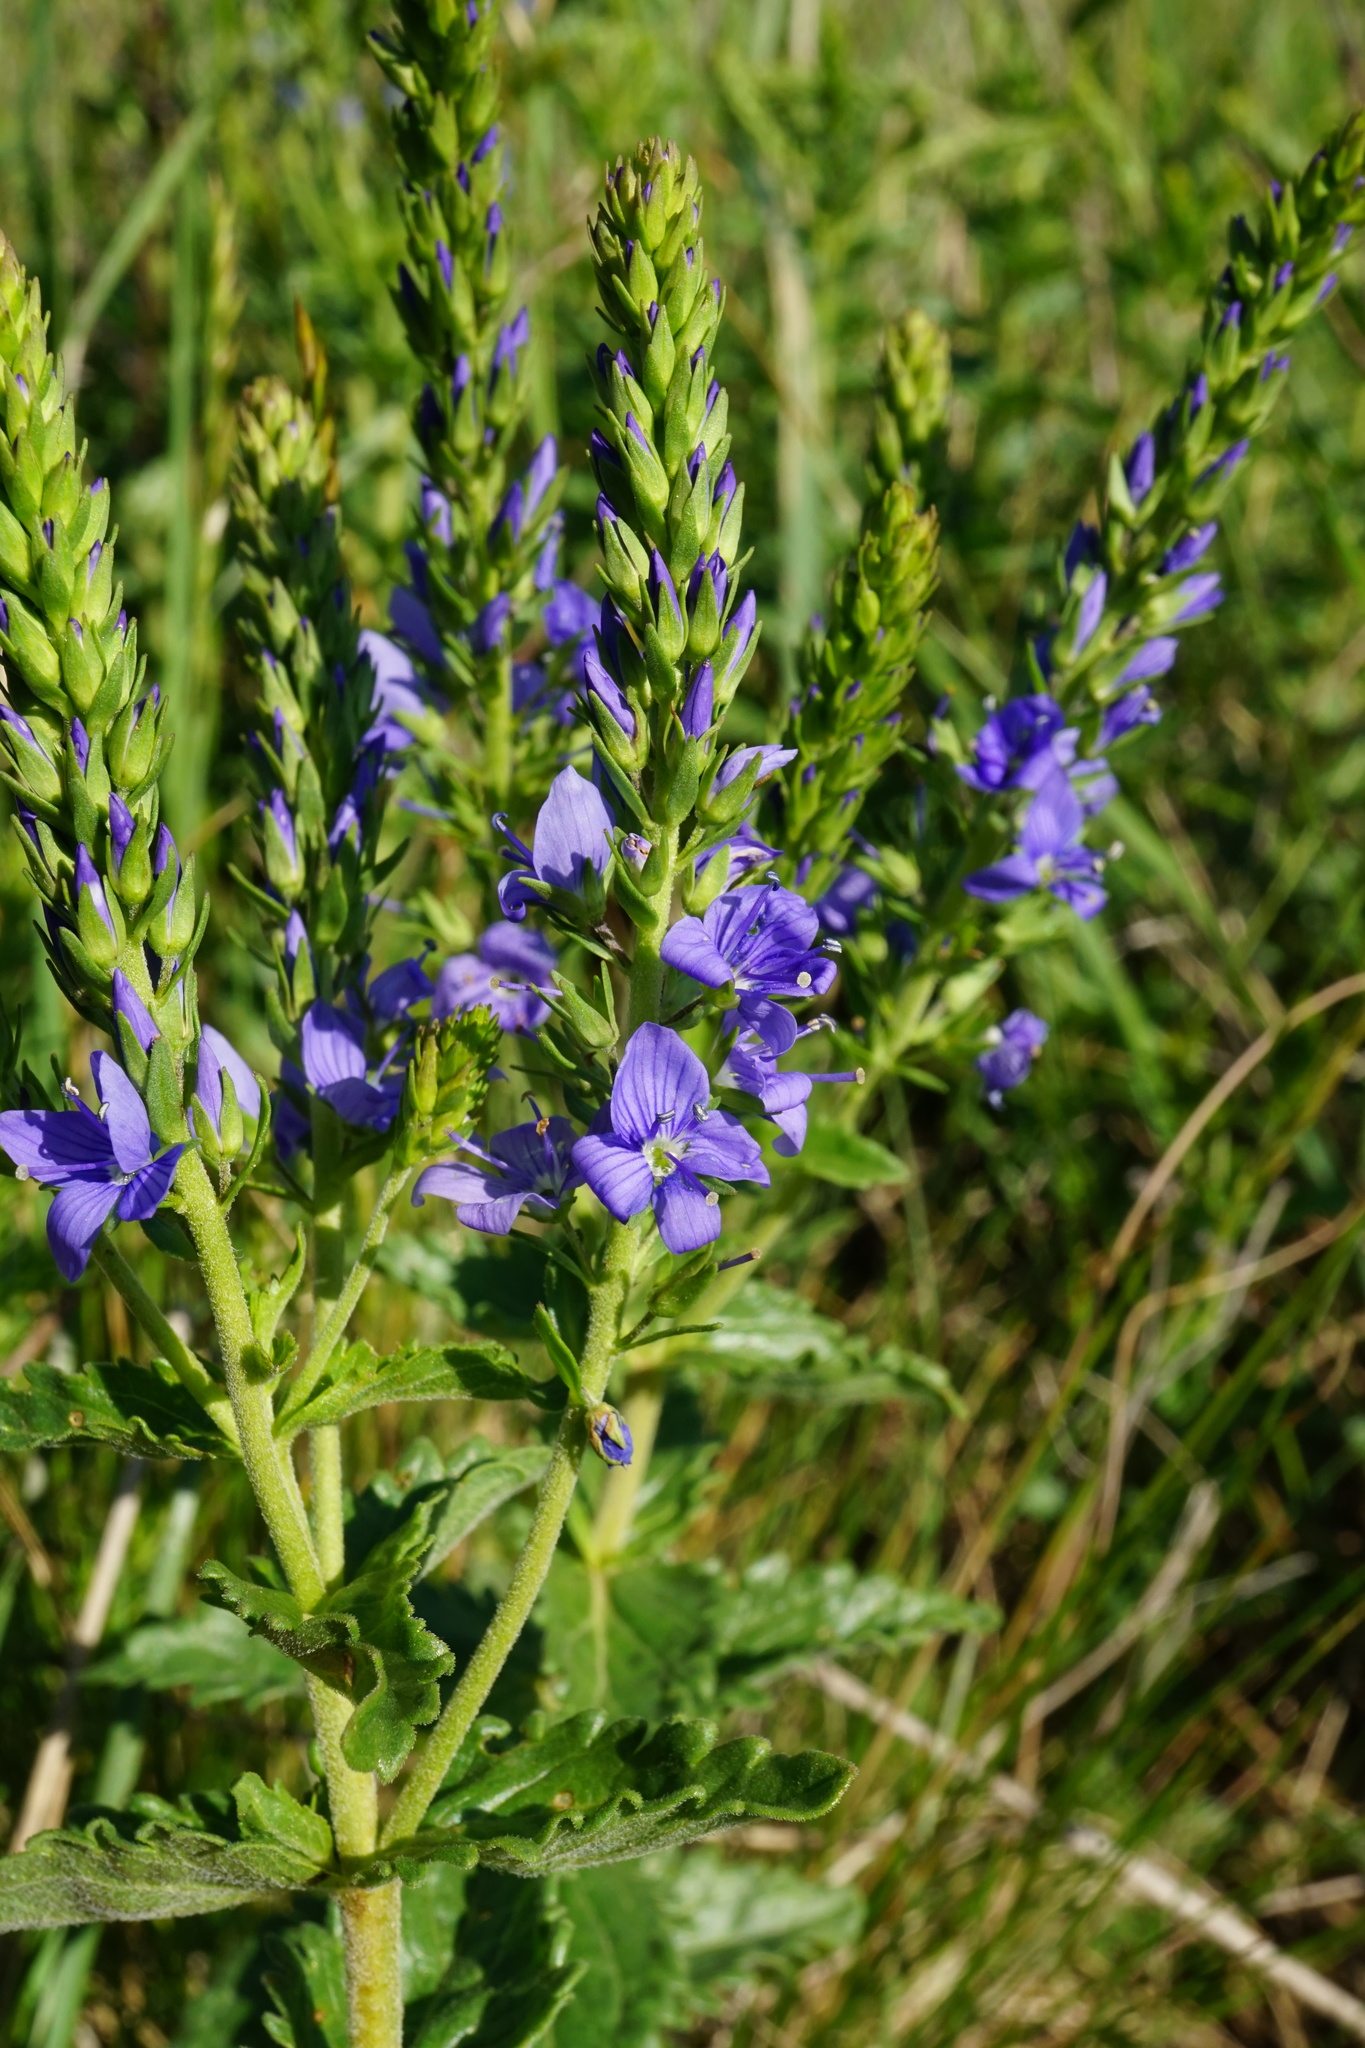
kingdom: Plantae
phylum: Tracheophyta
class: Magnoliopsida
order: Lamiales
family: Plantaginaceae
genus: Veronica
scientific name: Veronica teucrium
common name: Large speedwell
